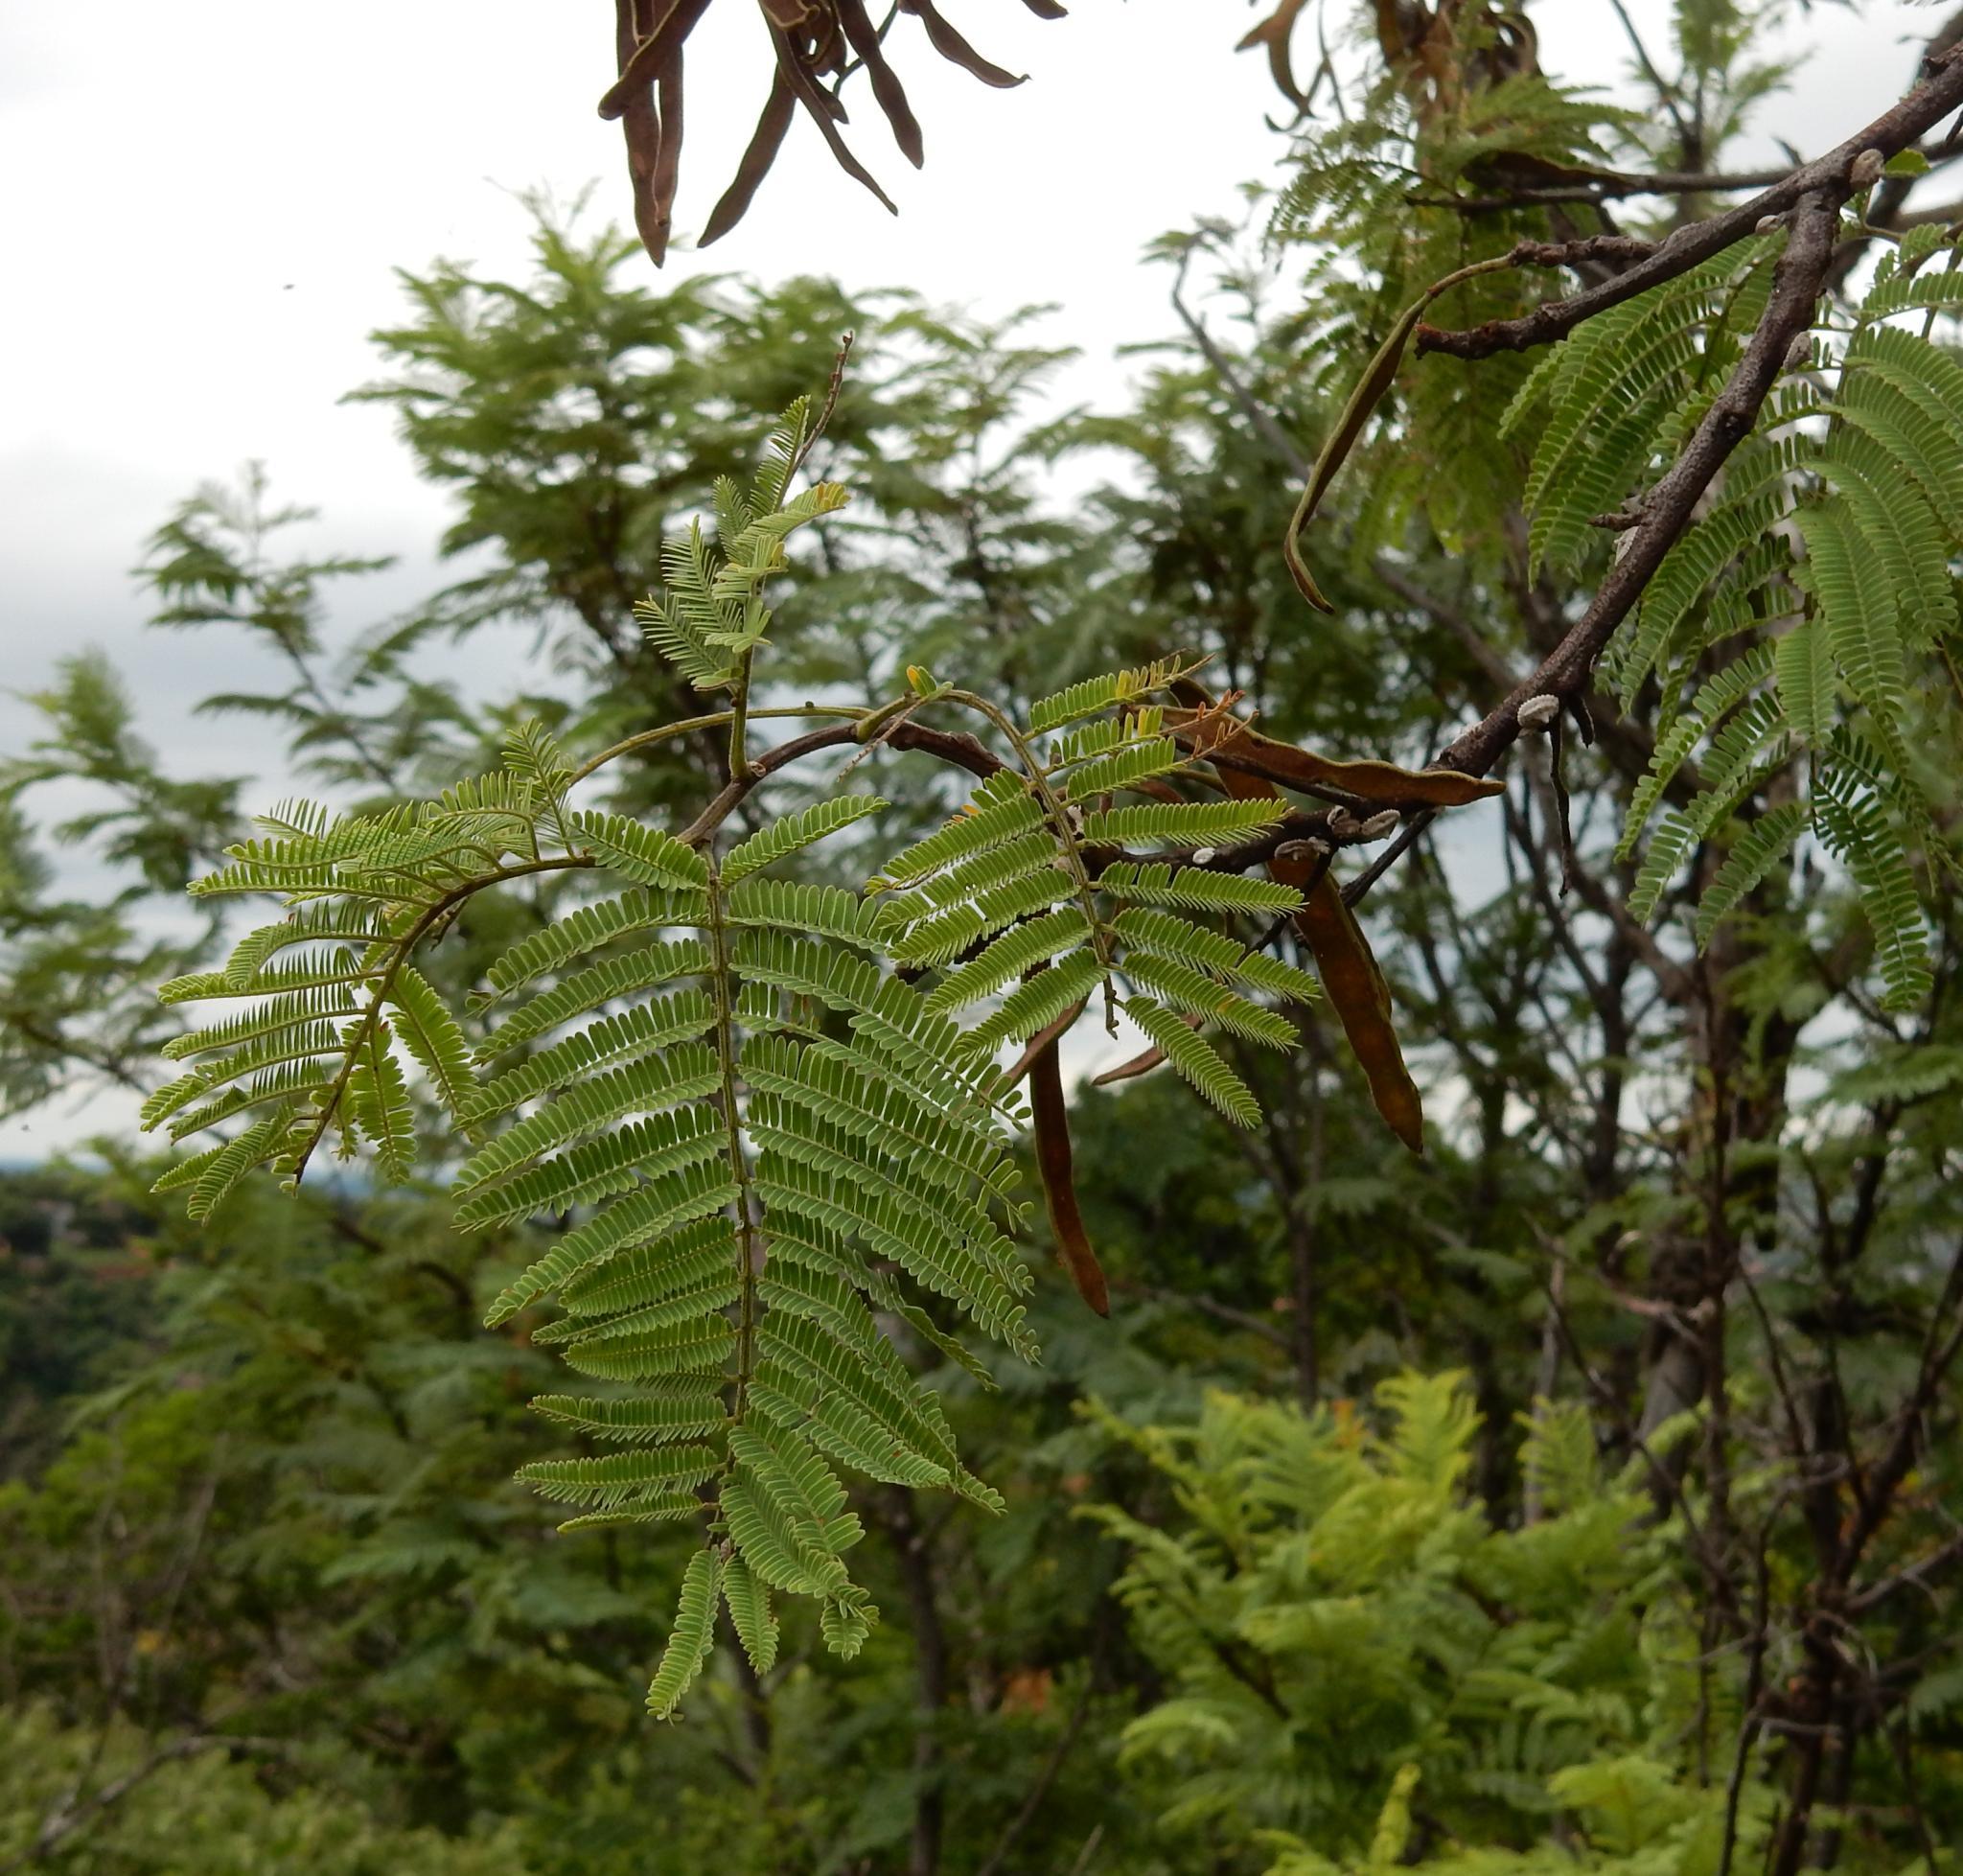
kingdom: Plantae
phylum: Tracheophyta
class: Magnoliopsida
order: Fabales
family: Fabaceae
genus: Senegalia
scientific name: Senegalia caffra
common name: Cat thorn
